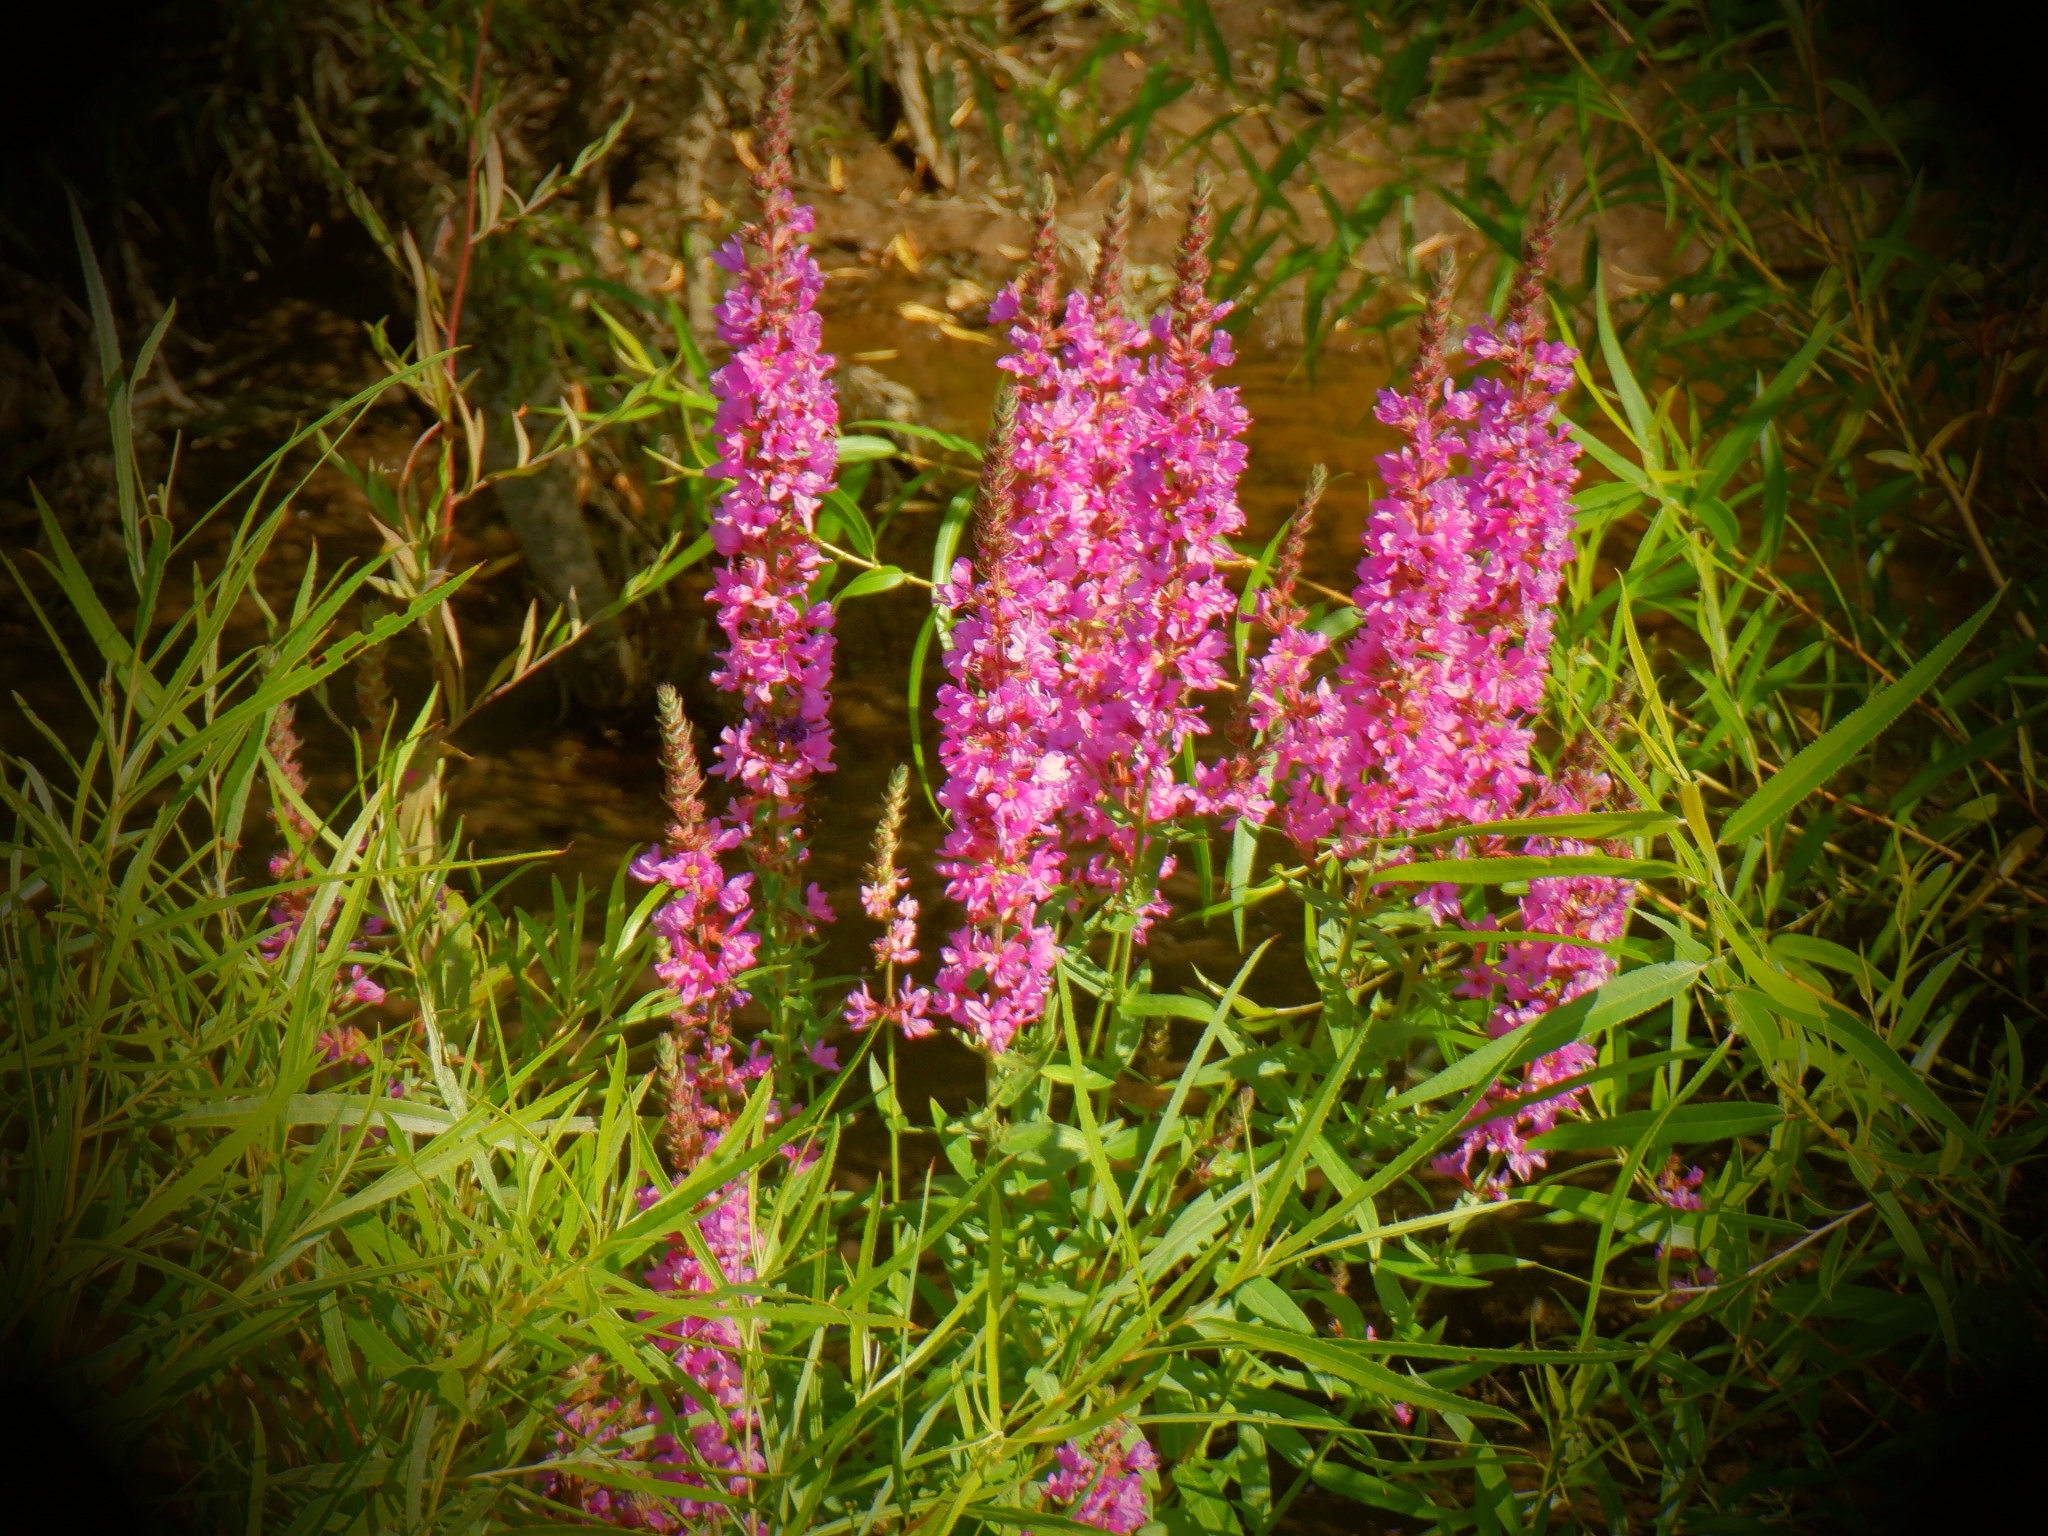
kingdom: Plantae
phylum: Tracheophyta
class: Magnoliopsida
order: Myrtales
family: Lythraceae
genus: Lythrum
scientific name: Lythrum salicaria
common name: Purple loosestrife
